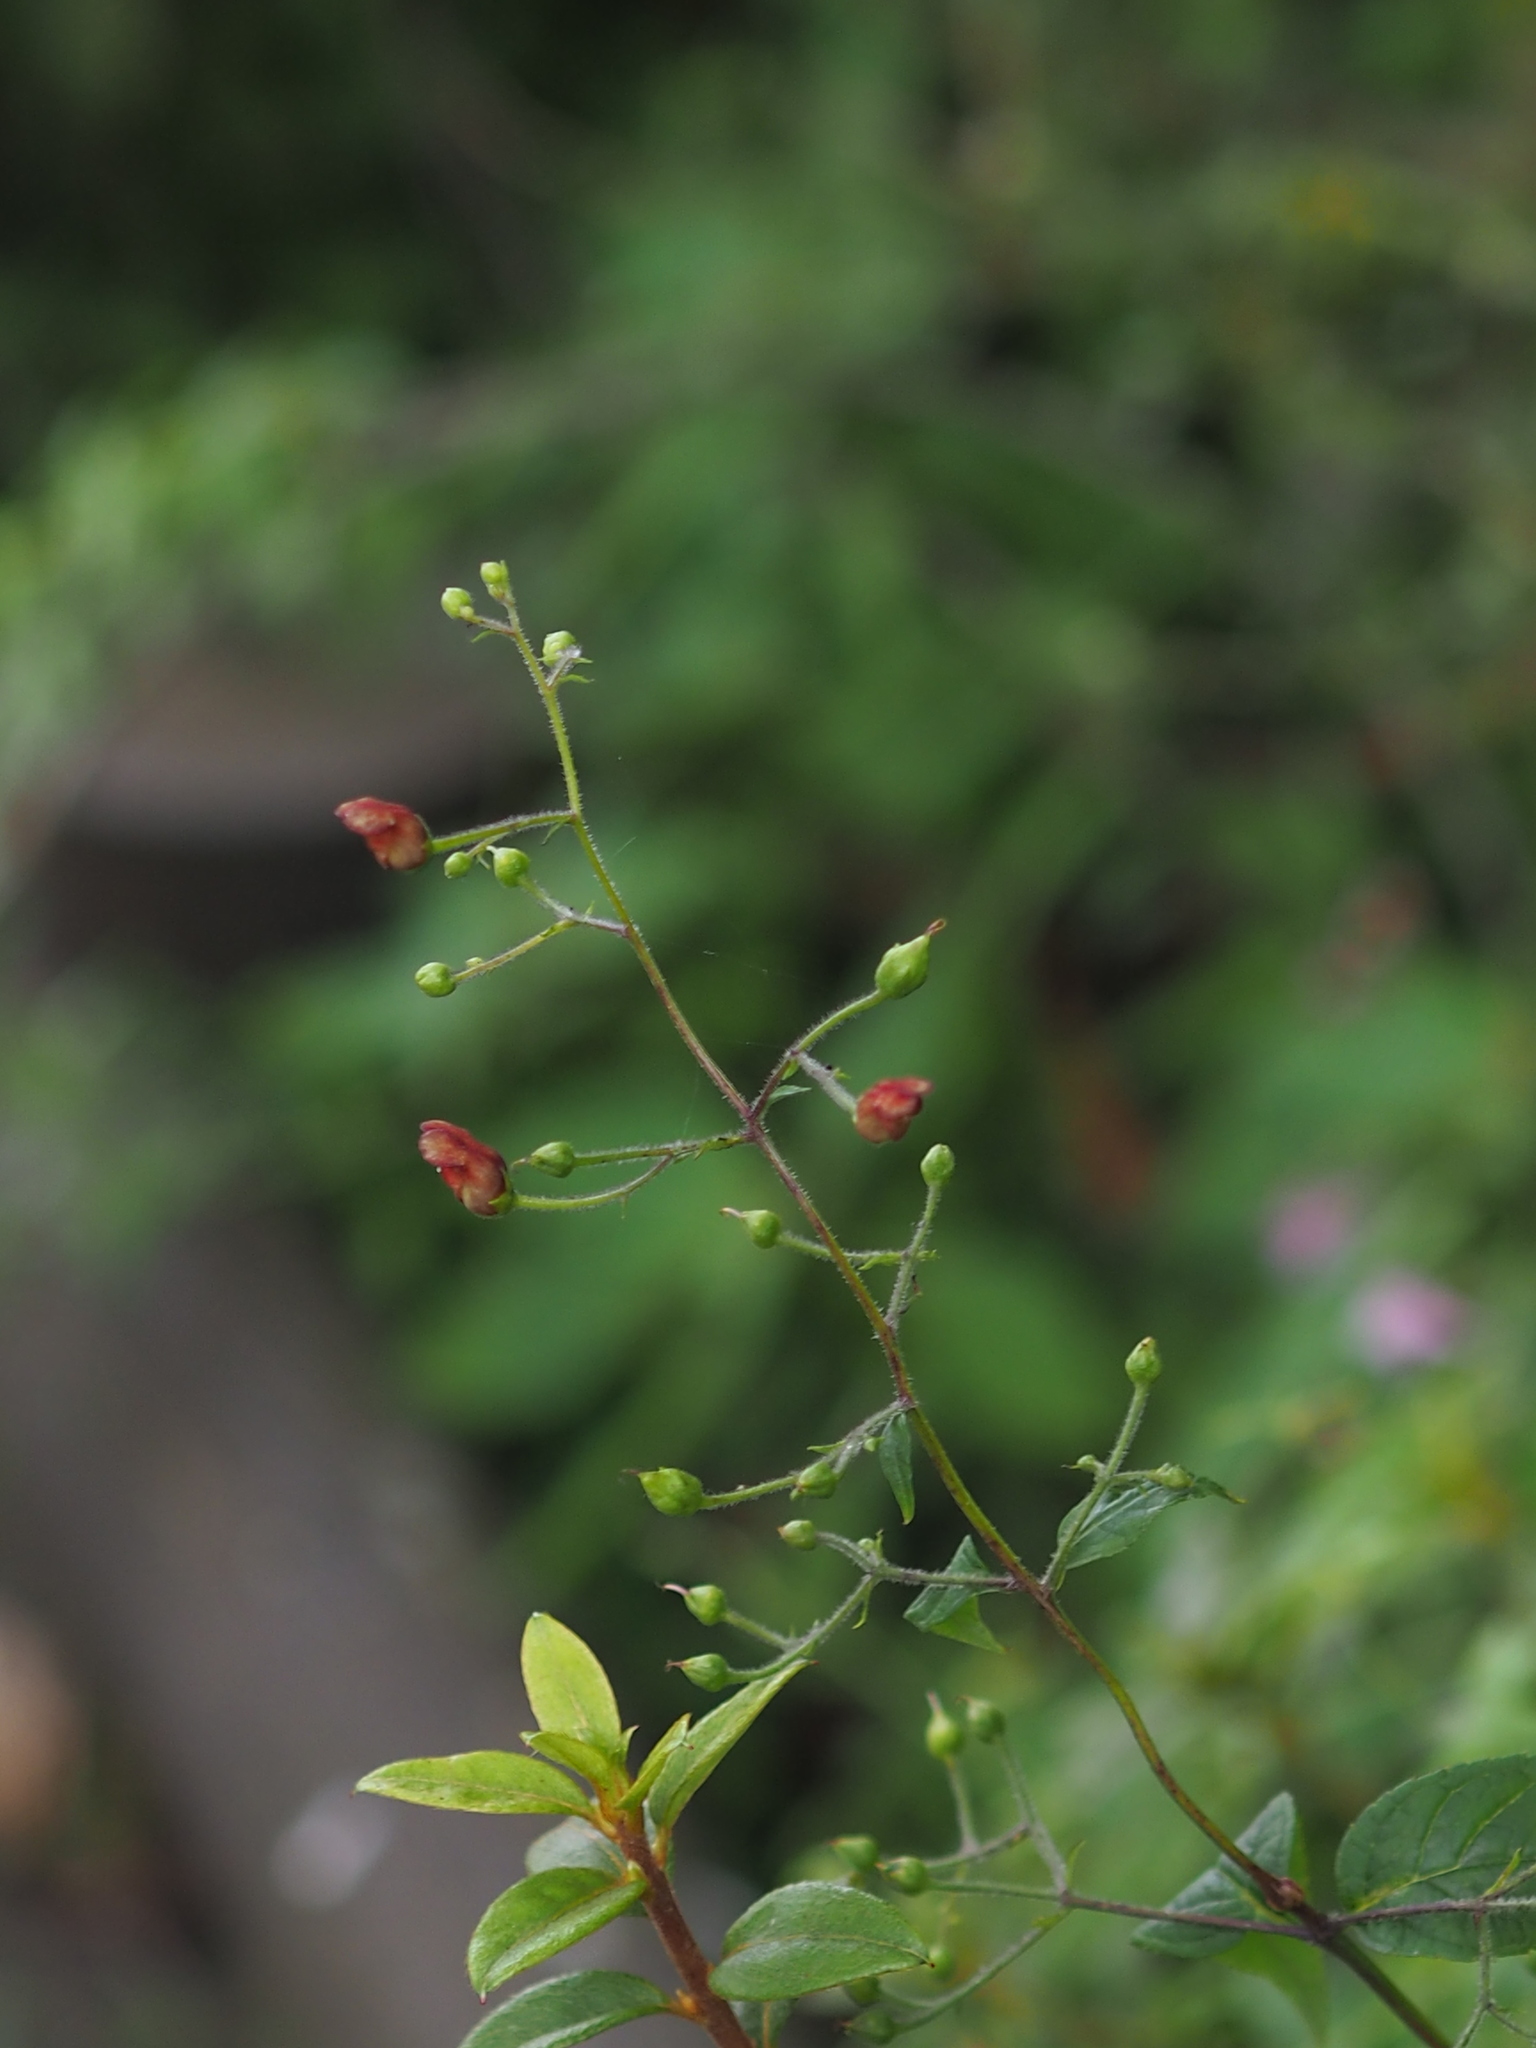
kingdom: Plantae
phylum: Tracheophyta
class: Magnoliopsida
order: Lamiales
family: Scrophulariaceae
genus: Scrophularia
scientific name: Scrophularia yoshimurae
